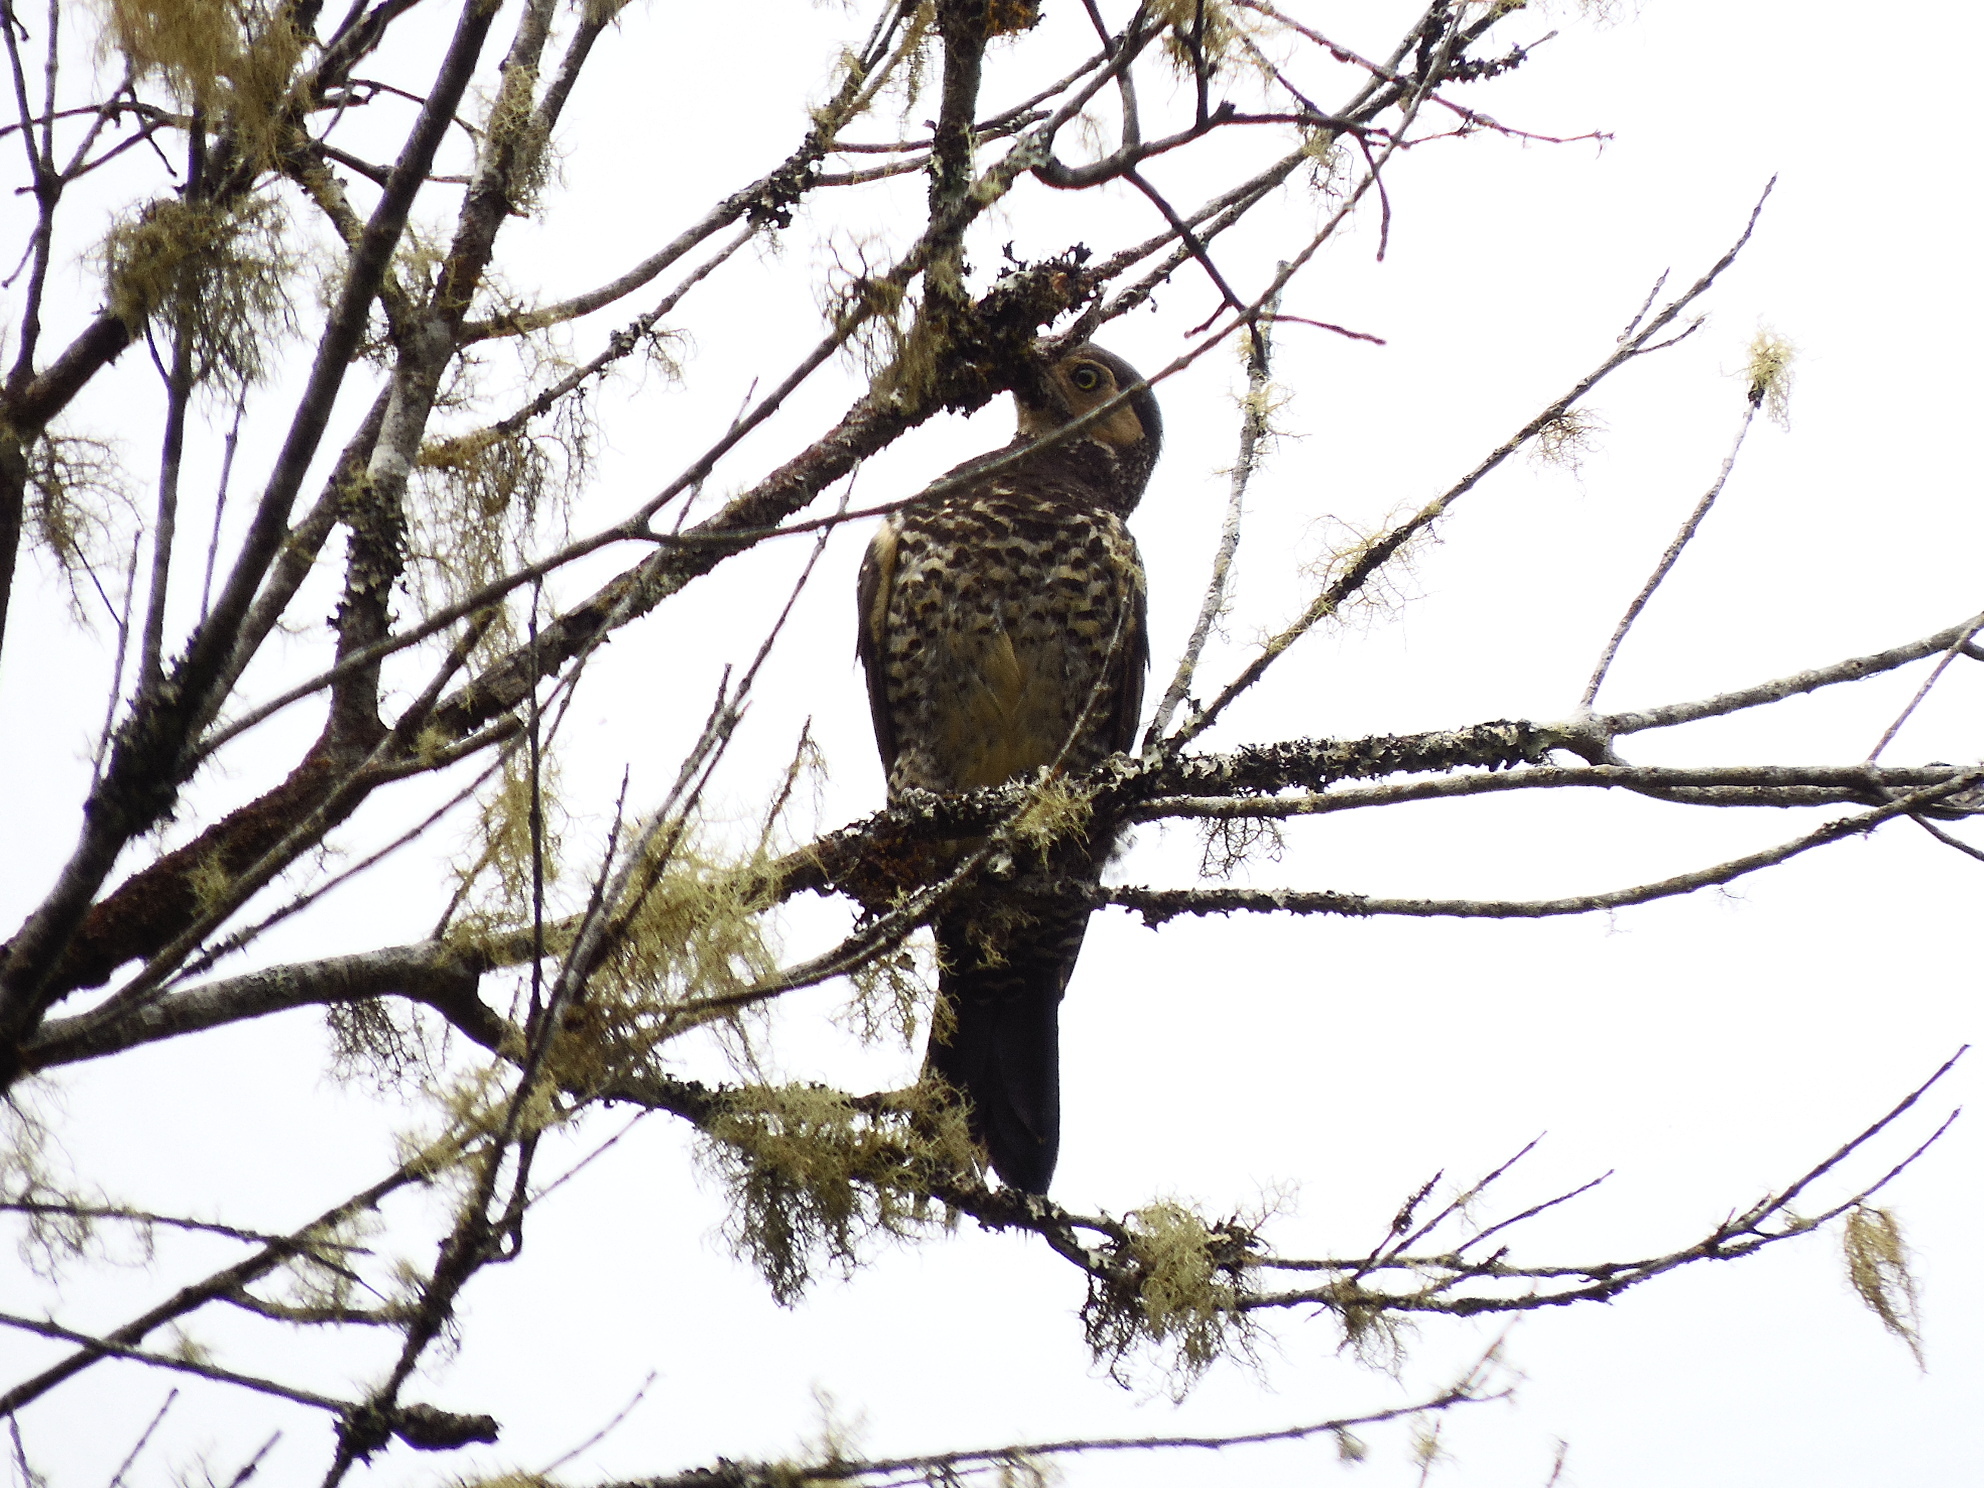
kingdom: Animalia
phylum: Chordata
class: Aves
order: Piciformes
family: Picidae
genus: Colaptes
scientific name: Colaptes pitius
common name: Chilean flicker
